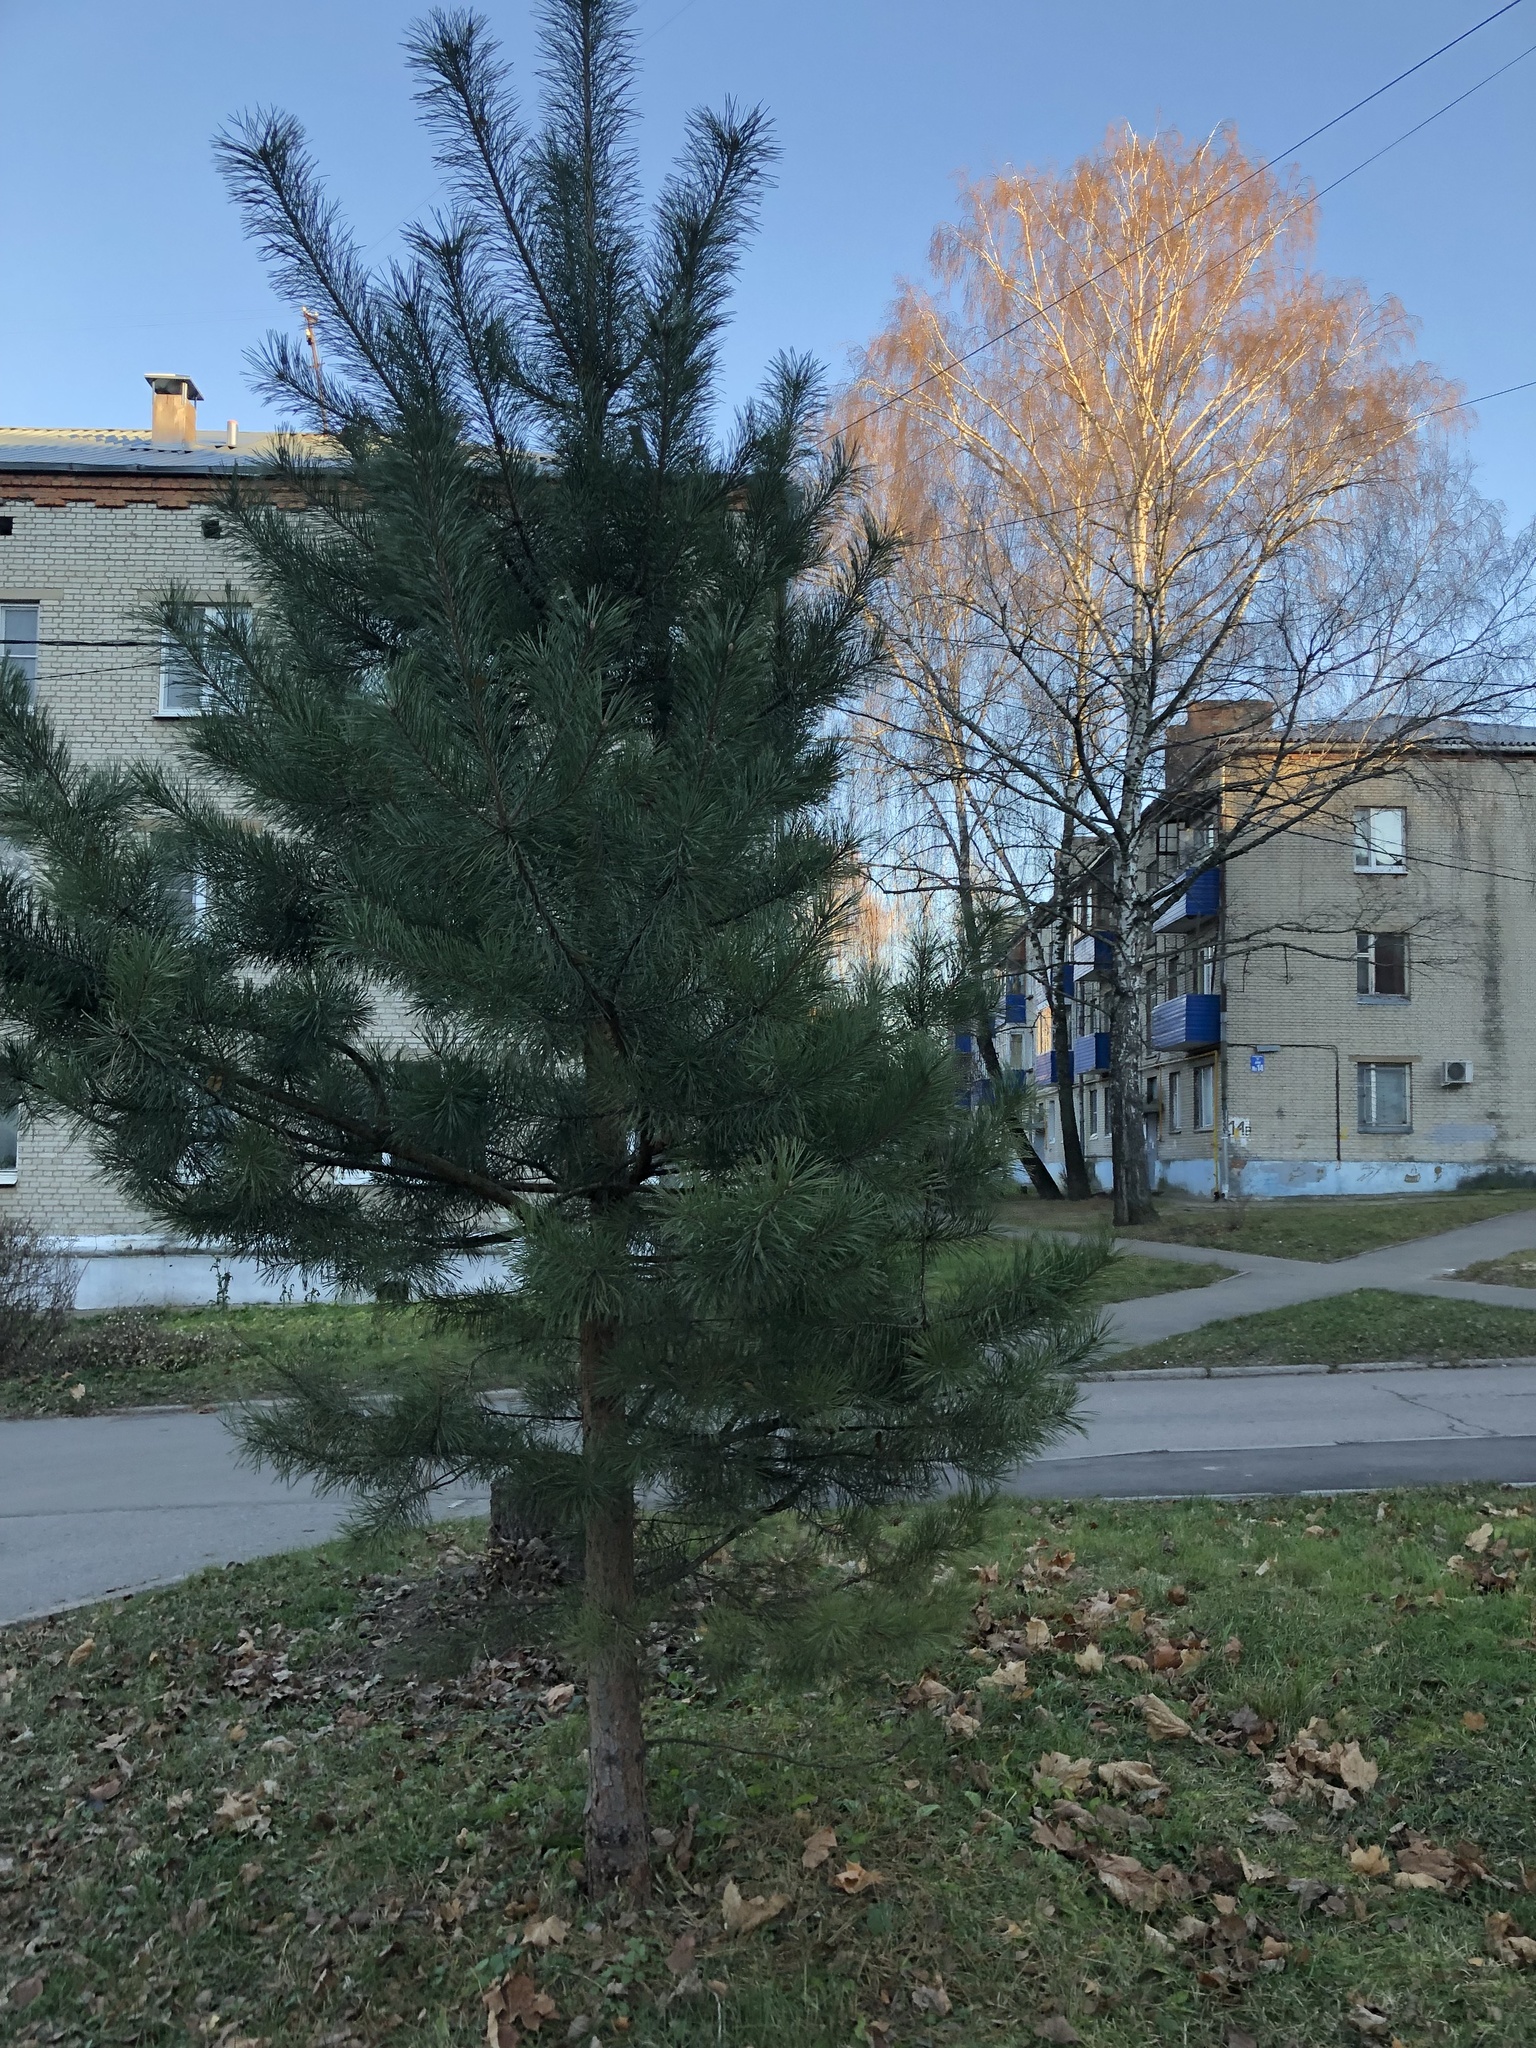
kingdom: Plantae
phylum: Tracheophyta
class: Pinopsida
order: Pinales
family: Pinaceae
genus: Pinus
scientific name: Pinus sylvestris
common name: Scots pine
